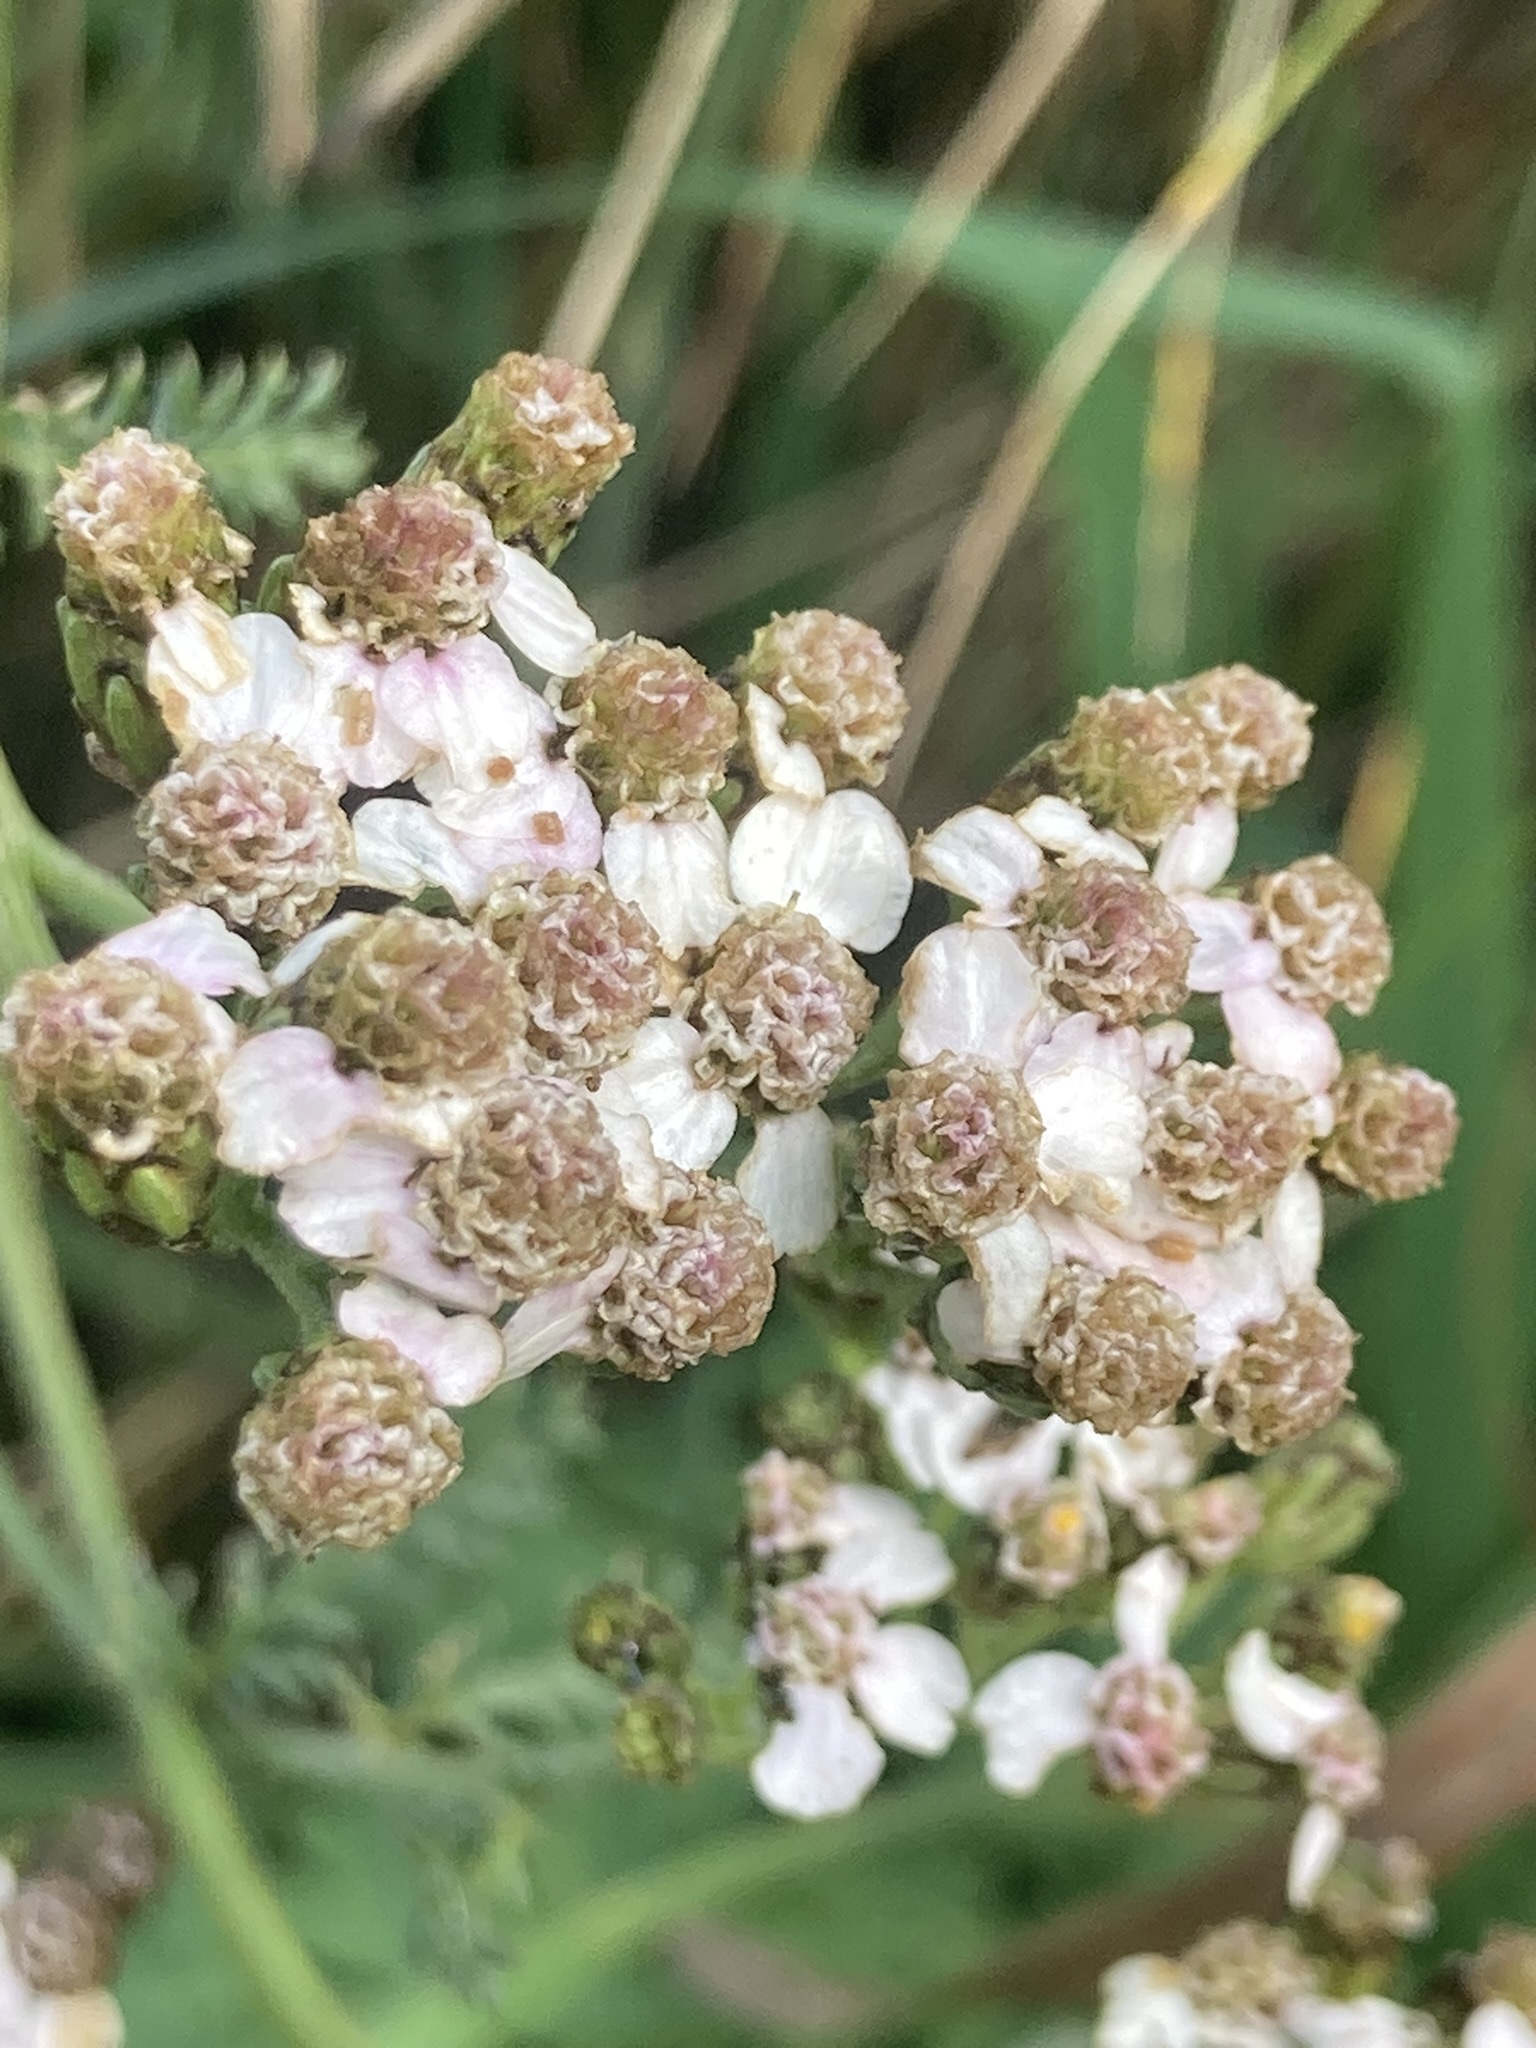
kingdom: Plantae
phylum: Tracheophyta
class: Magnoliopsida
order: Asterales
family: Asteraceae
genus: Achillea
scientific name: Achillea millefolium
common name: Yarrow
